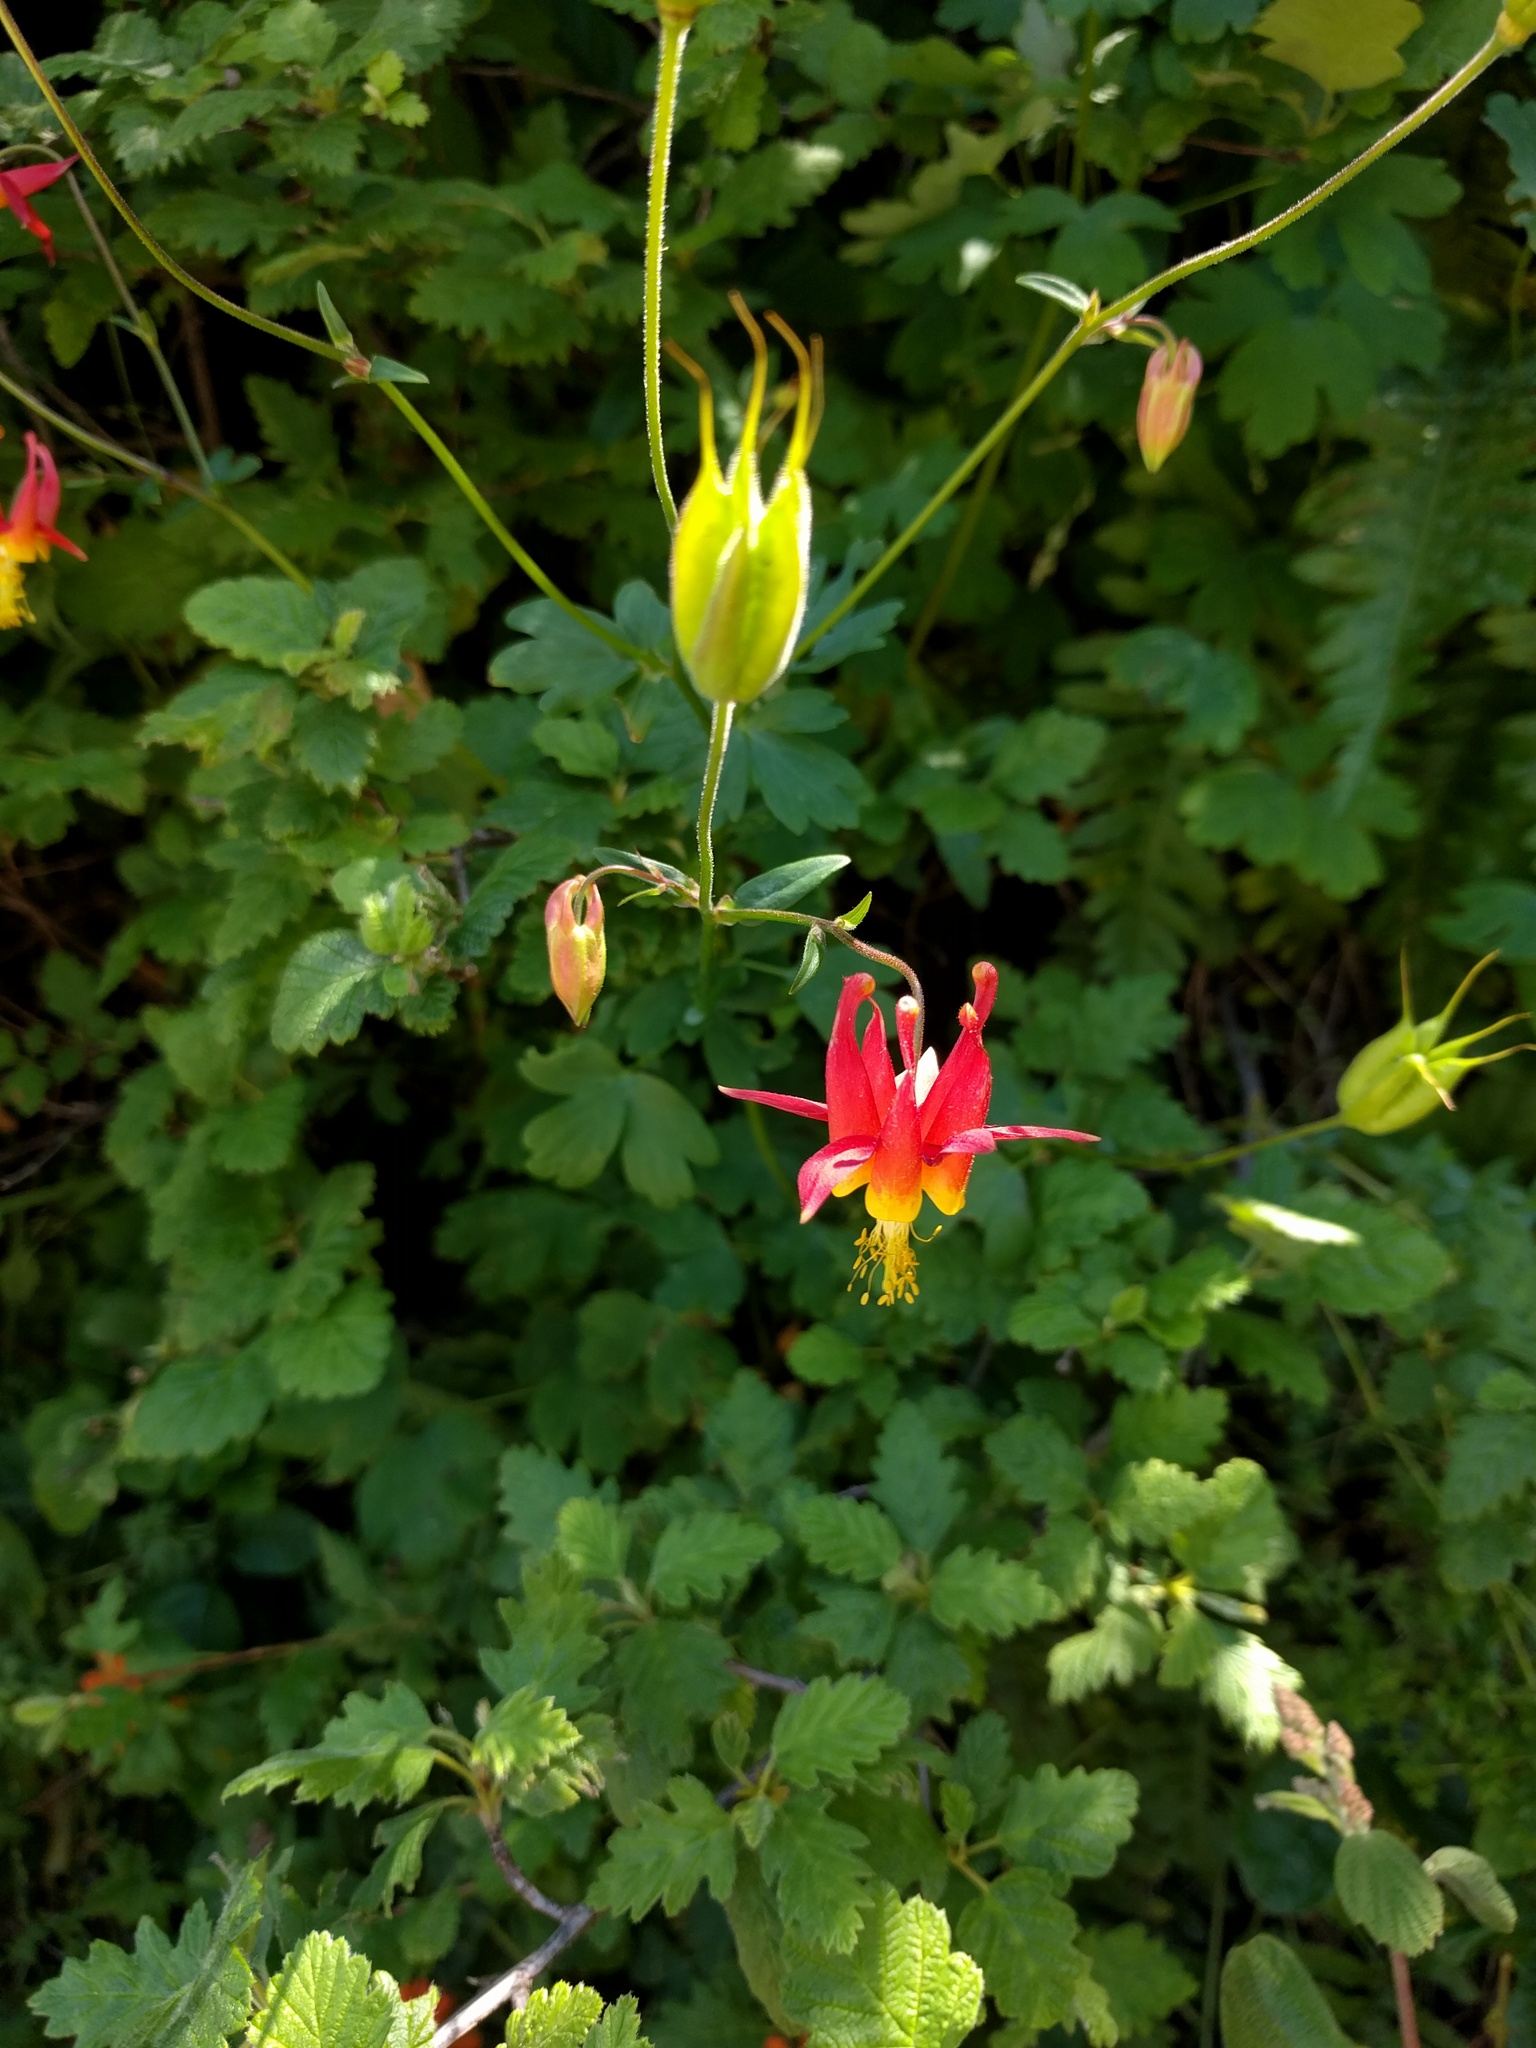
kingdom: Plantae
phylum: Tracheophyta
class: Magnoliopsida
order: Ranunculales
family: Ranunculaceae
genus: Aquilegia
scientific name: Aquilegia formosa
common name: Sitka columbine
